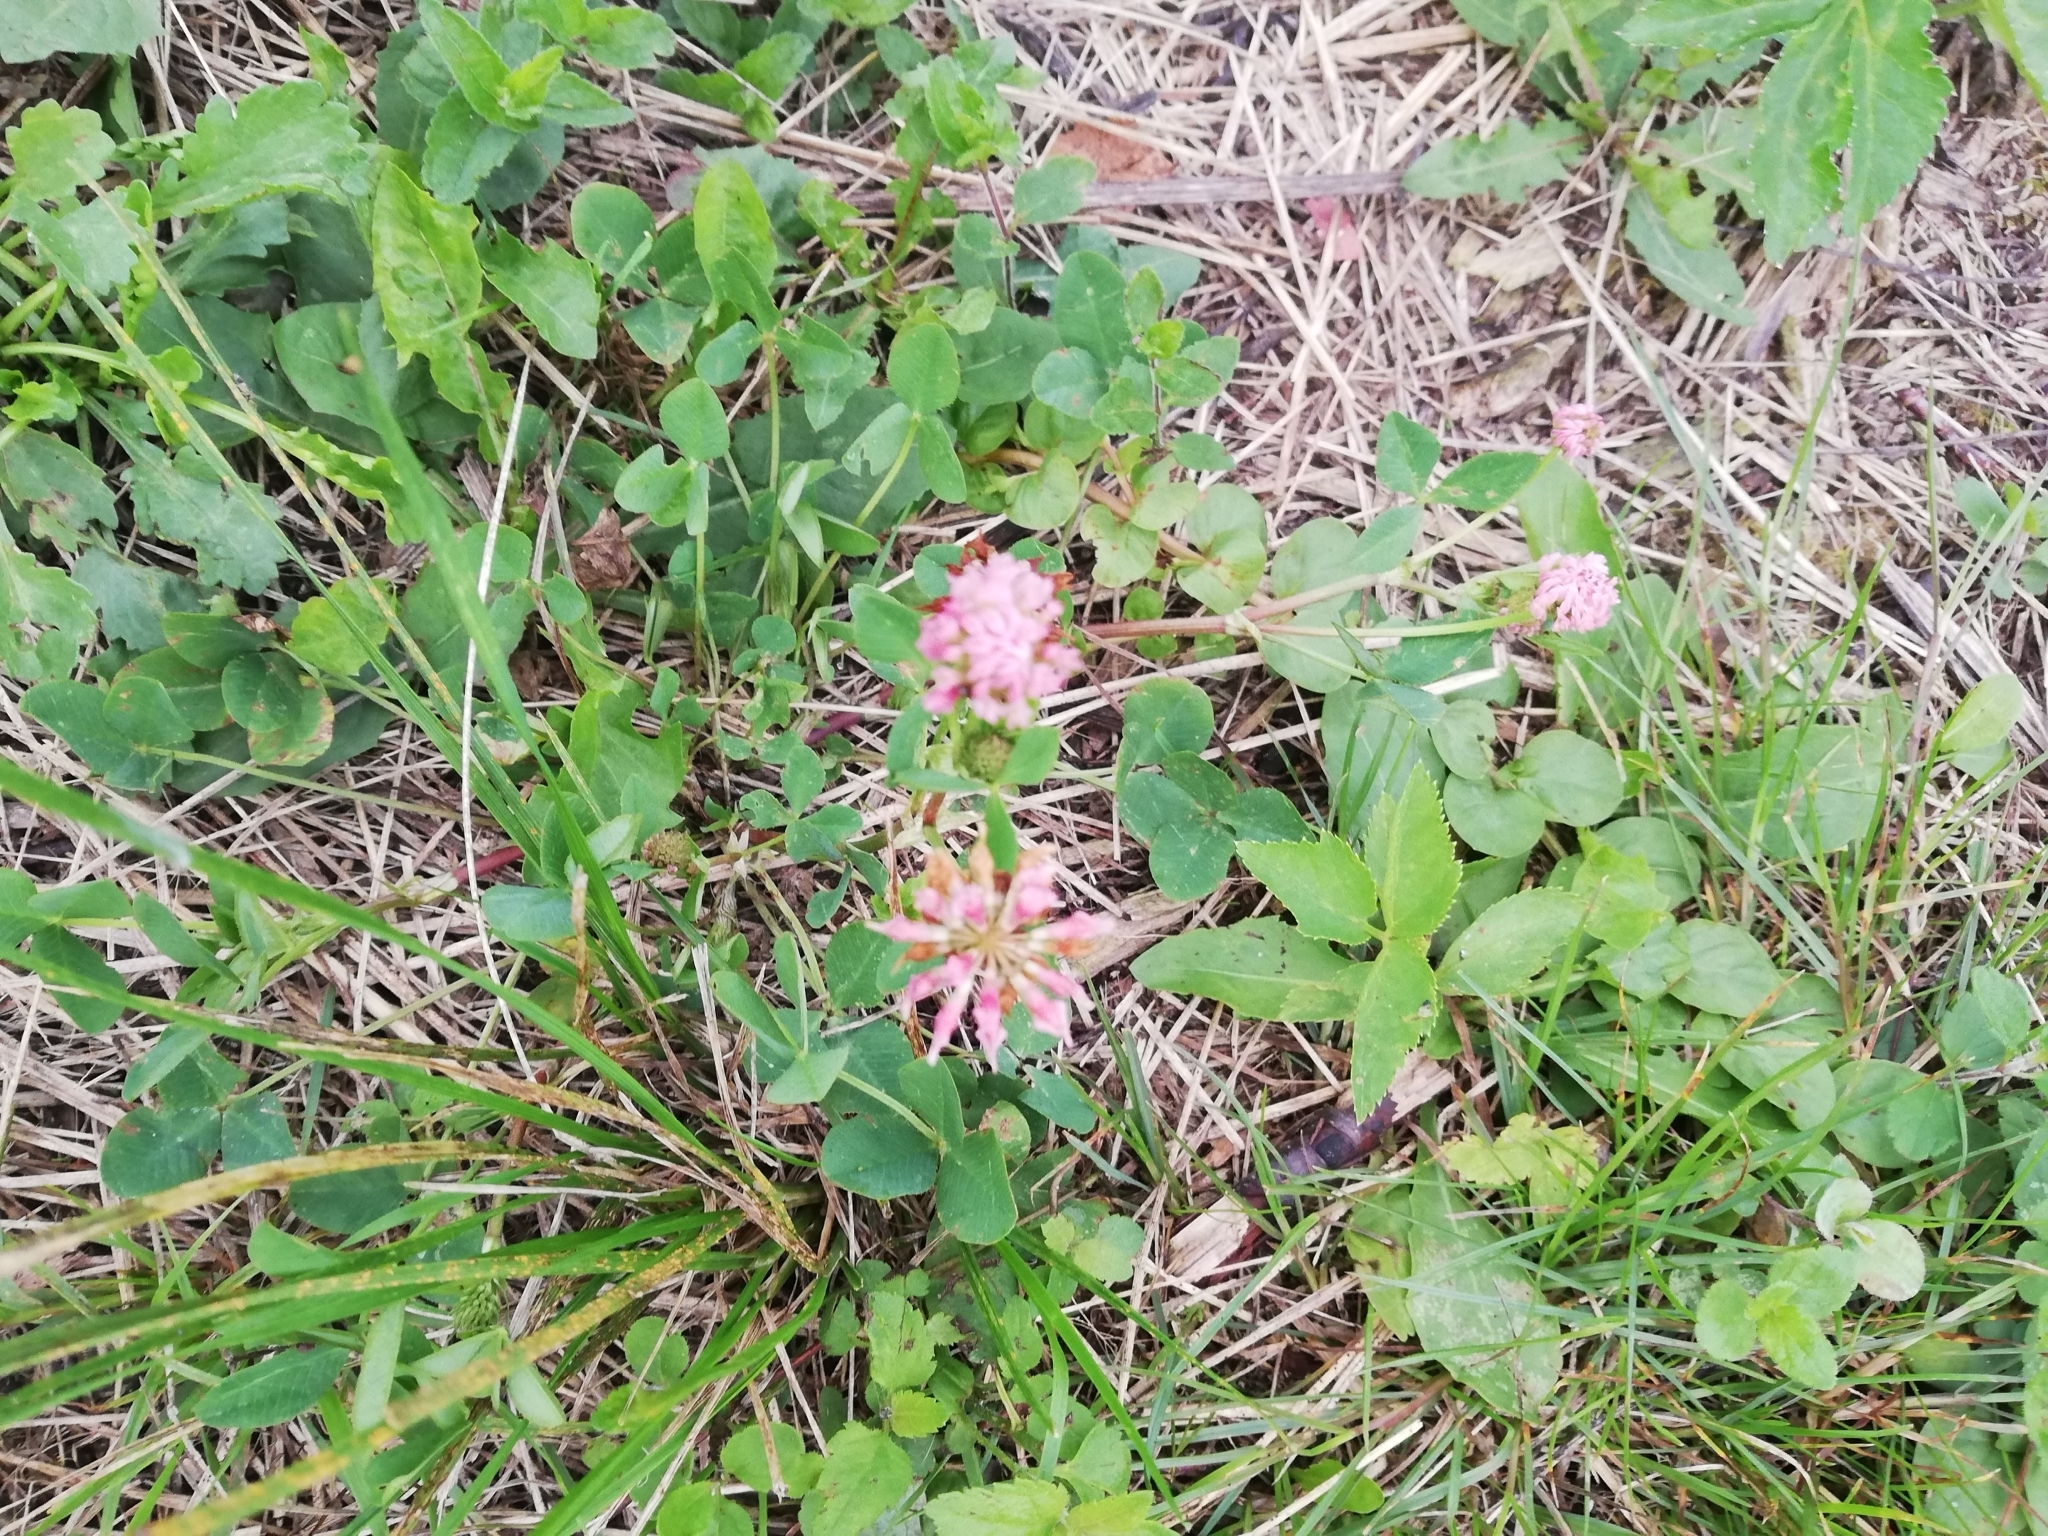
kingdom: Plantae
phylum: Tracheophyta
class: Magnoliopsida
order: Fabales
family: Fabaceae
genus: Trifolium
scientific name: Trifolium hybridum
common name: Alsike clover
